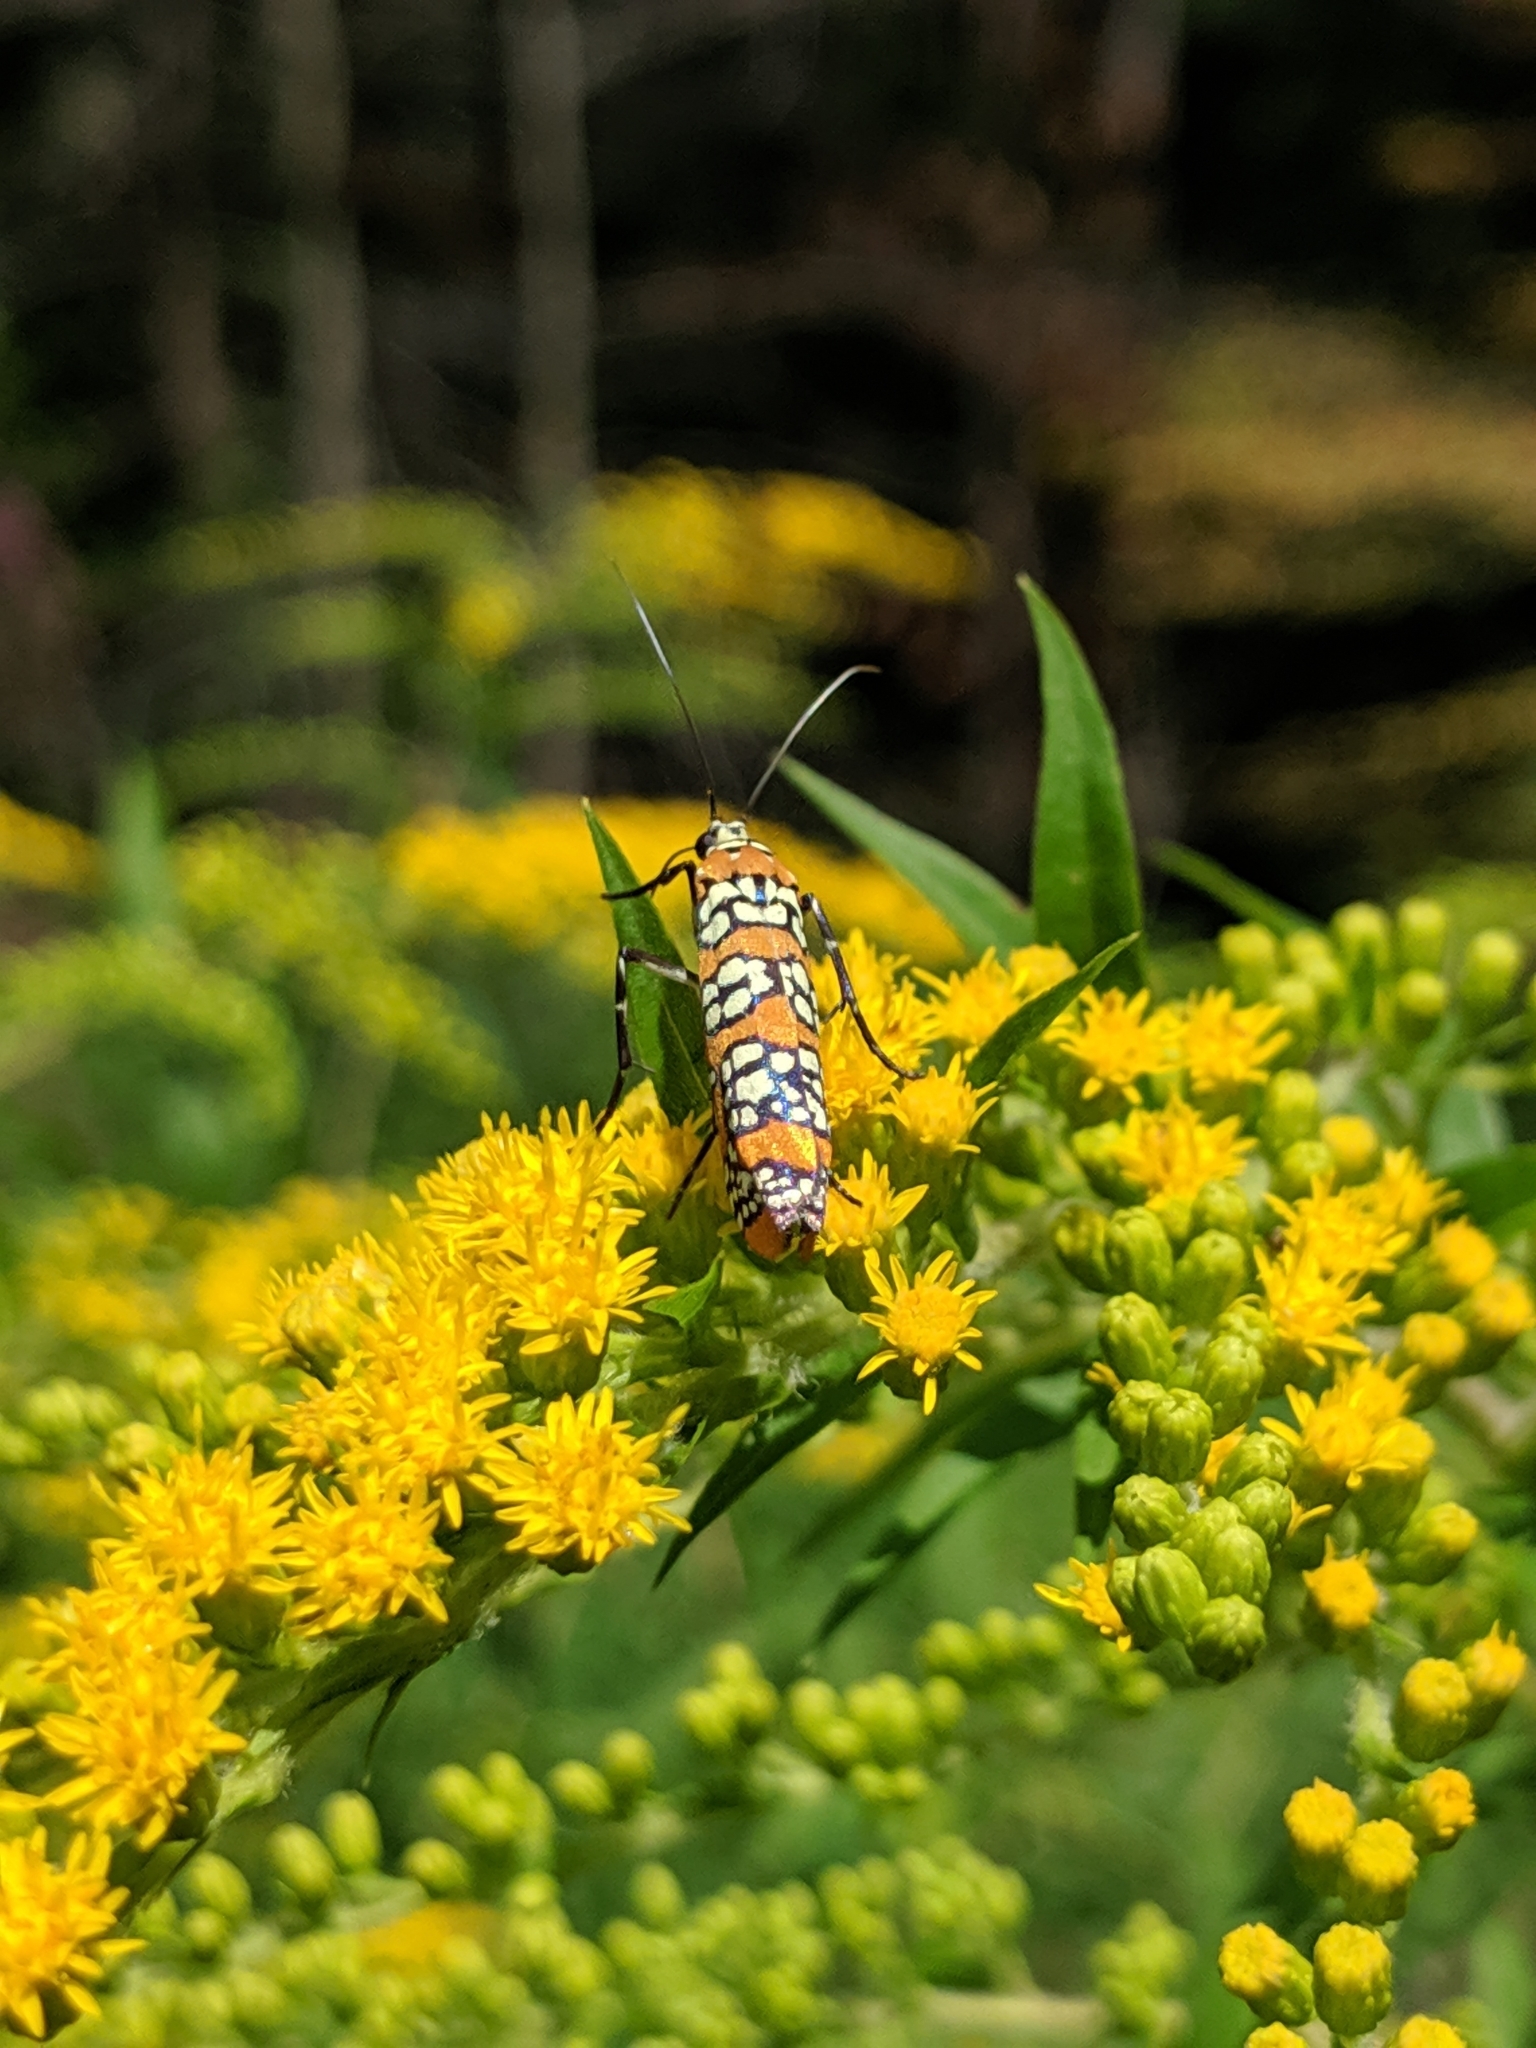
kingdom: Animalia
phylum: Arthropoda
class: Insecta
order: Lepidoptera
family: Attevidae
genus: Atteva
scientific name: Atteva punctella
